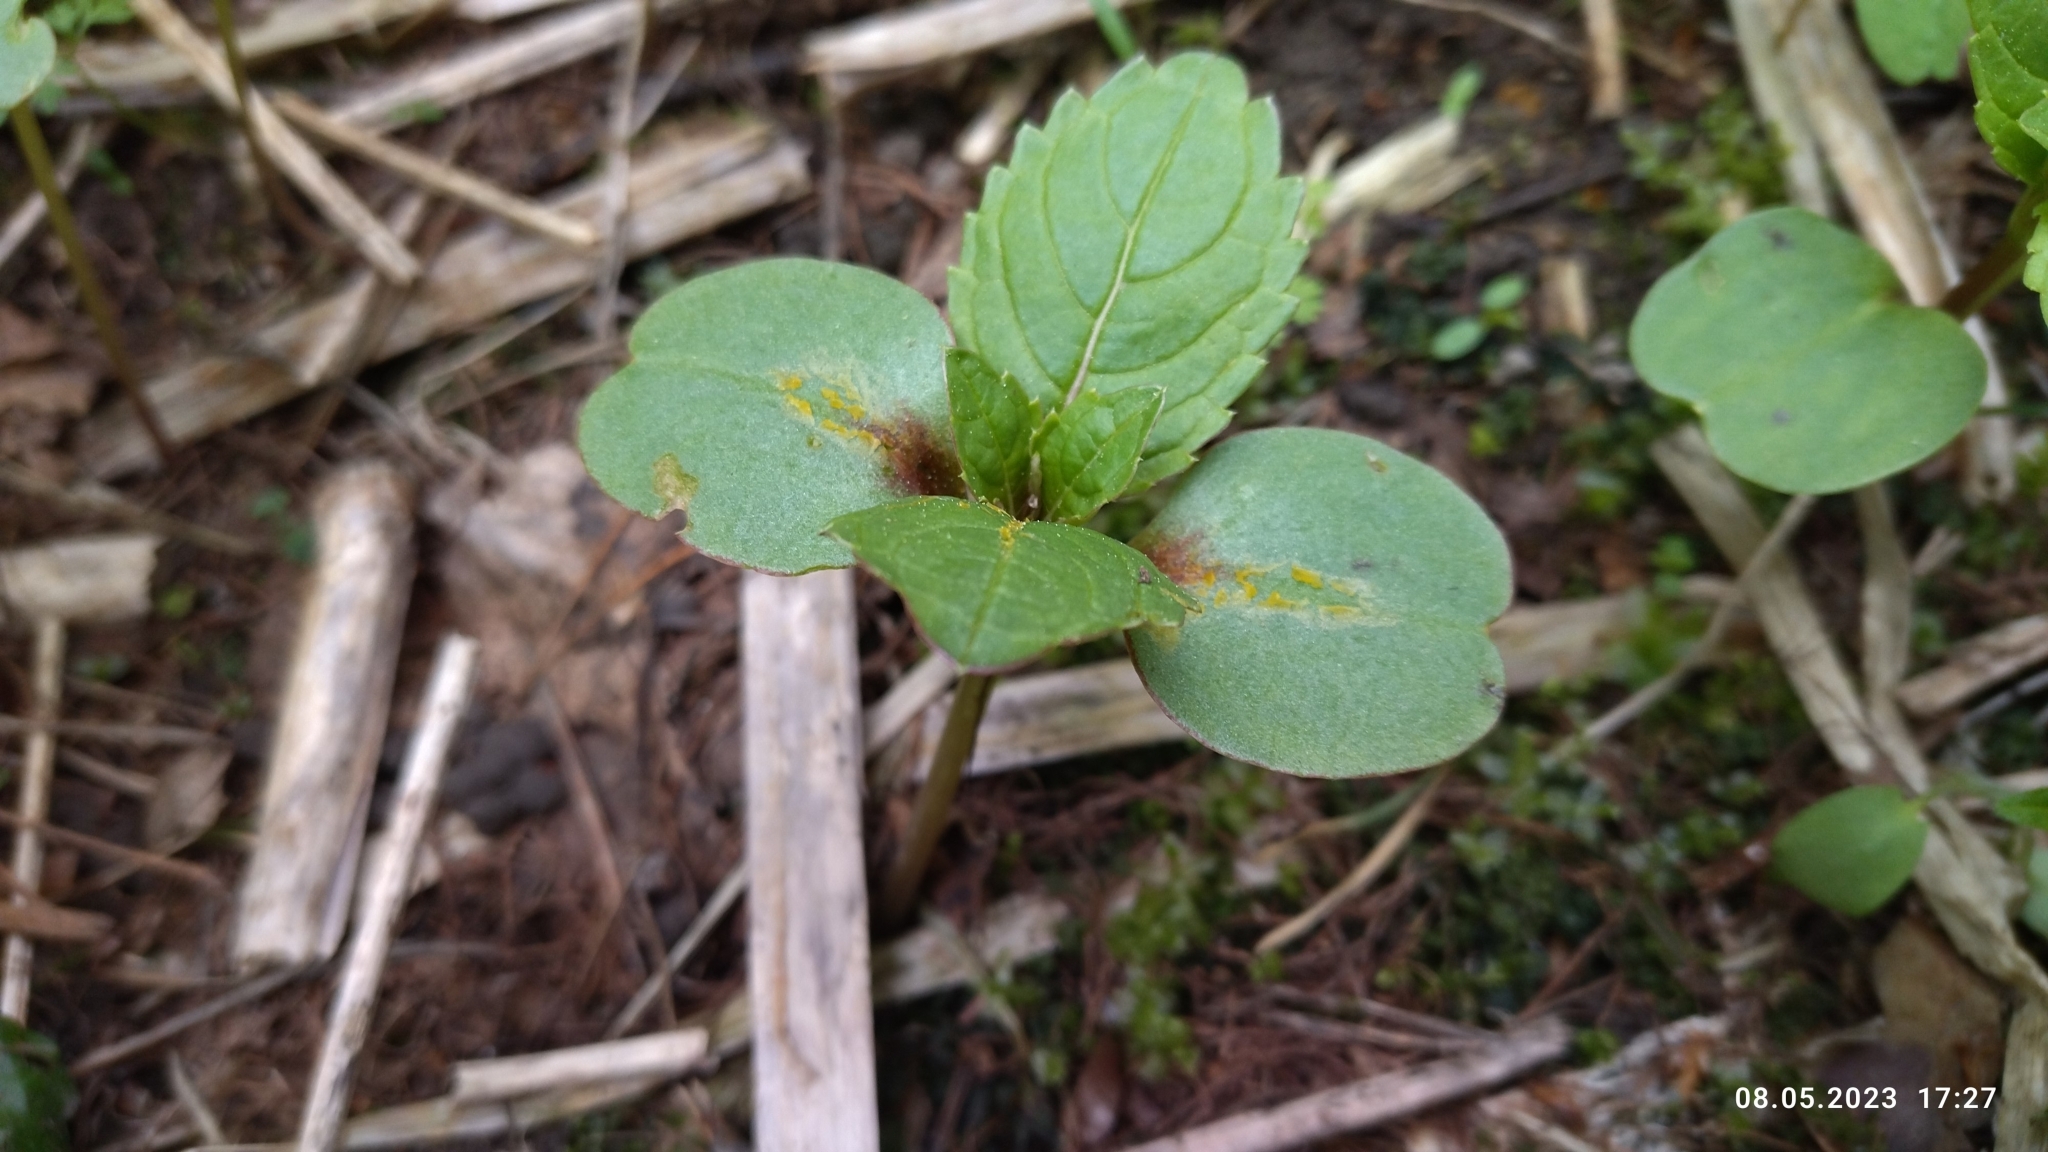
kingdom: Plantae
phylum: Tracheophyta
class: Magnoliopsida
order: Ericales
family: Balsaminaceae
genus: Impatiens
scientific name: Impatiens glandulifera
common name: Himalayan balsam
